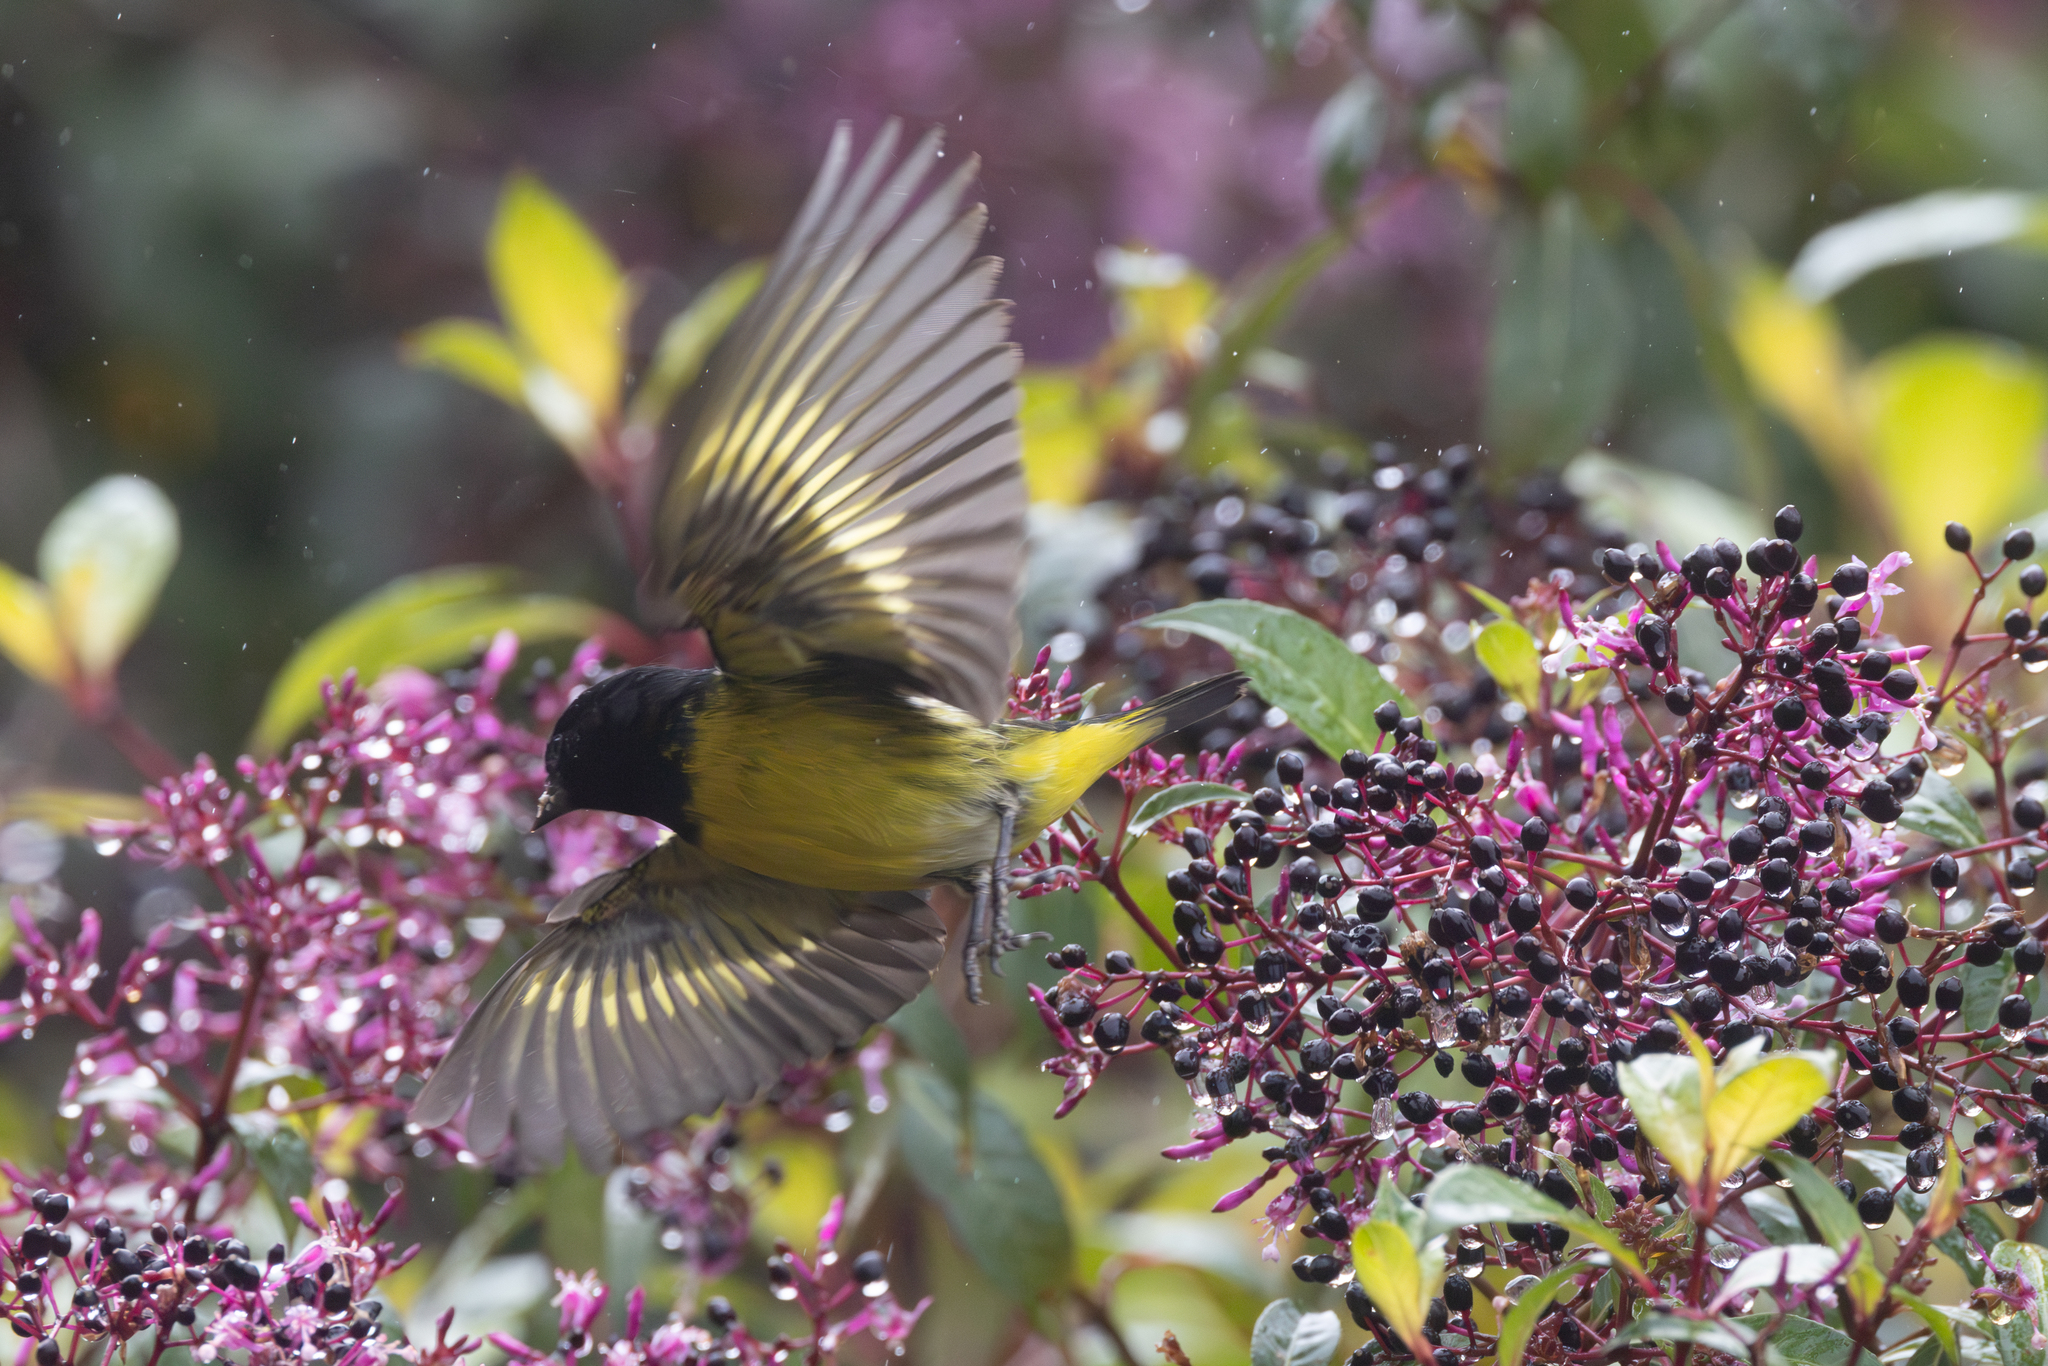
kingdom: Animalia
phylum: Chordata
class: Aves
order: Passeriformes
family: Fringillidae
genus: Spinus
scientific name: Spinus xanthogastrus
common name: Yellow-bellied siskin
